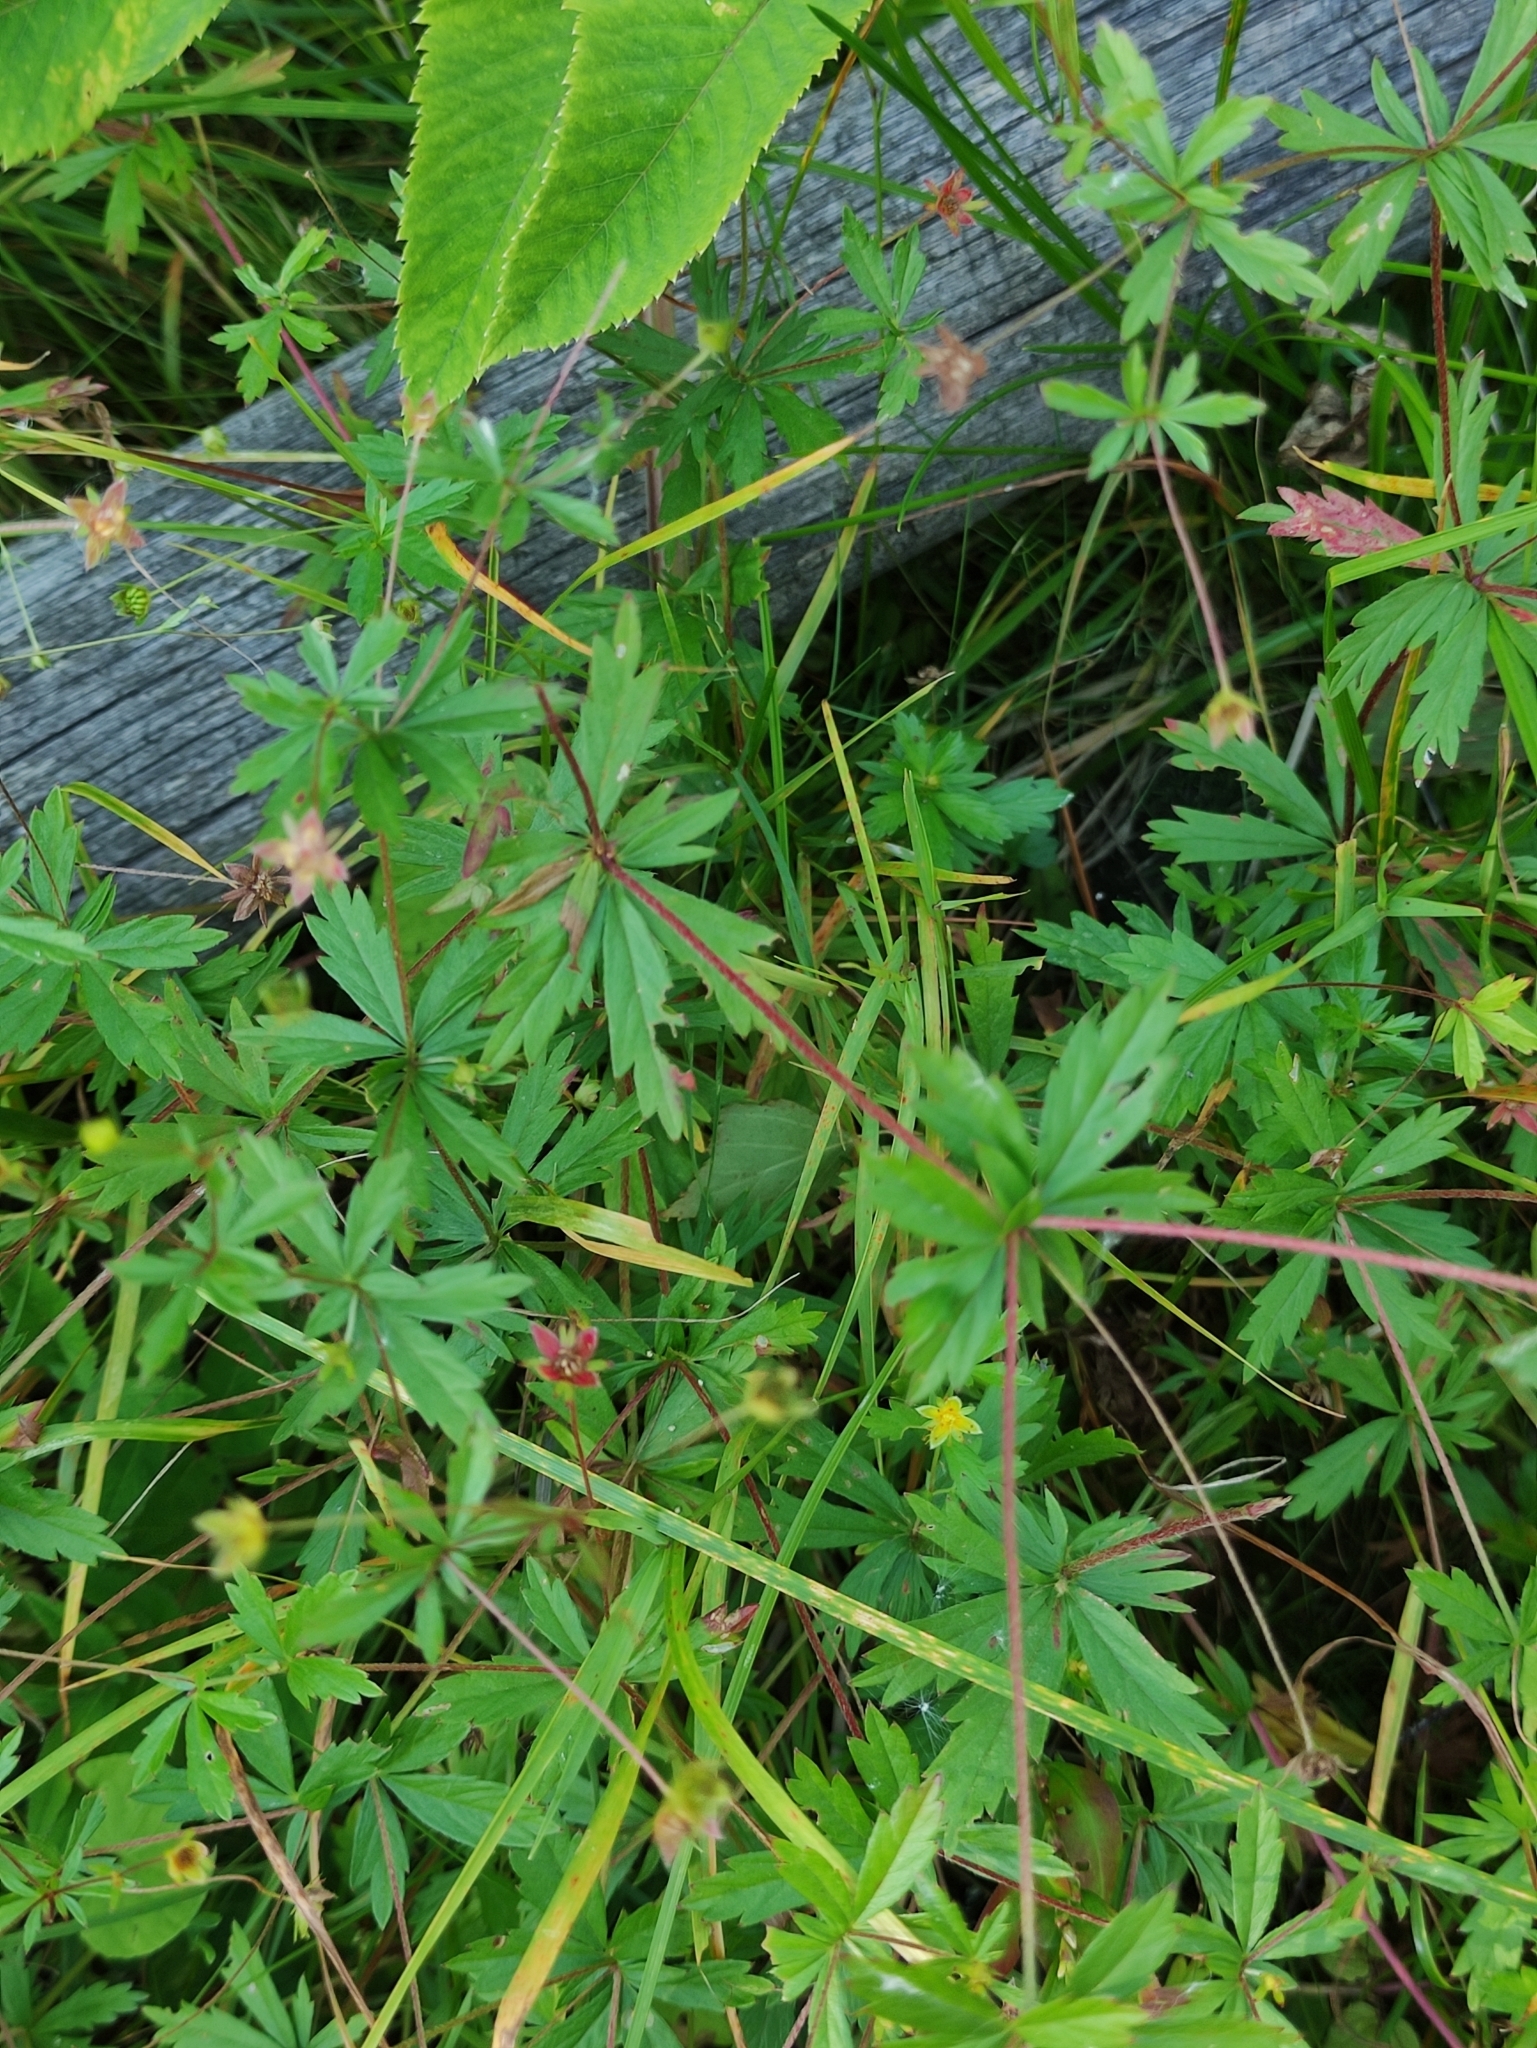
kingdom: Plantae
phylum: Tracheophyta
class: Magnoliopsida
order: Rosales
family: Rosaceae
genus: Potentilla
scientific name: Potentilla erecta
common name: Tormentil
